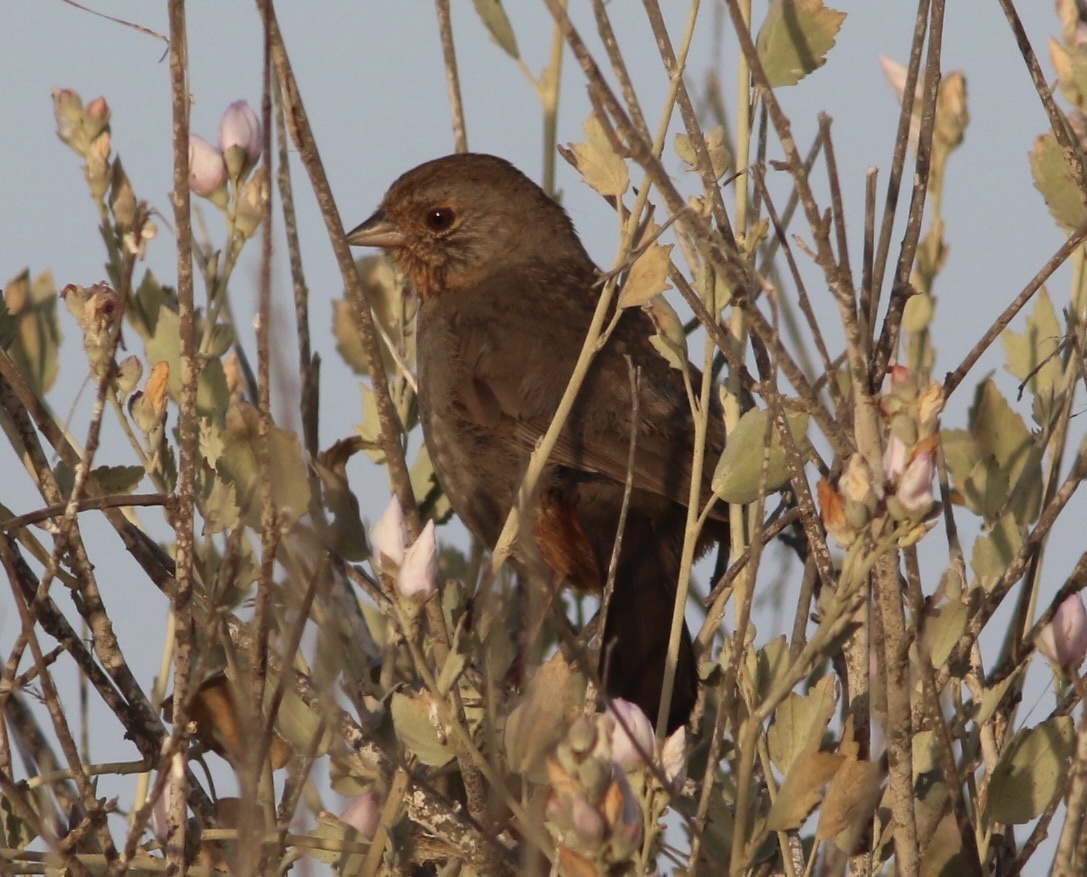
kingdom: Animalia
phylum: Chordata
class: Aves
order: Passeriformes
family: Passerellidae
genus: Melozone
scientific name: Melozone crissalis
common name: California towhee
